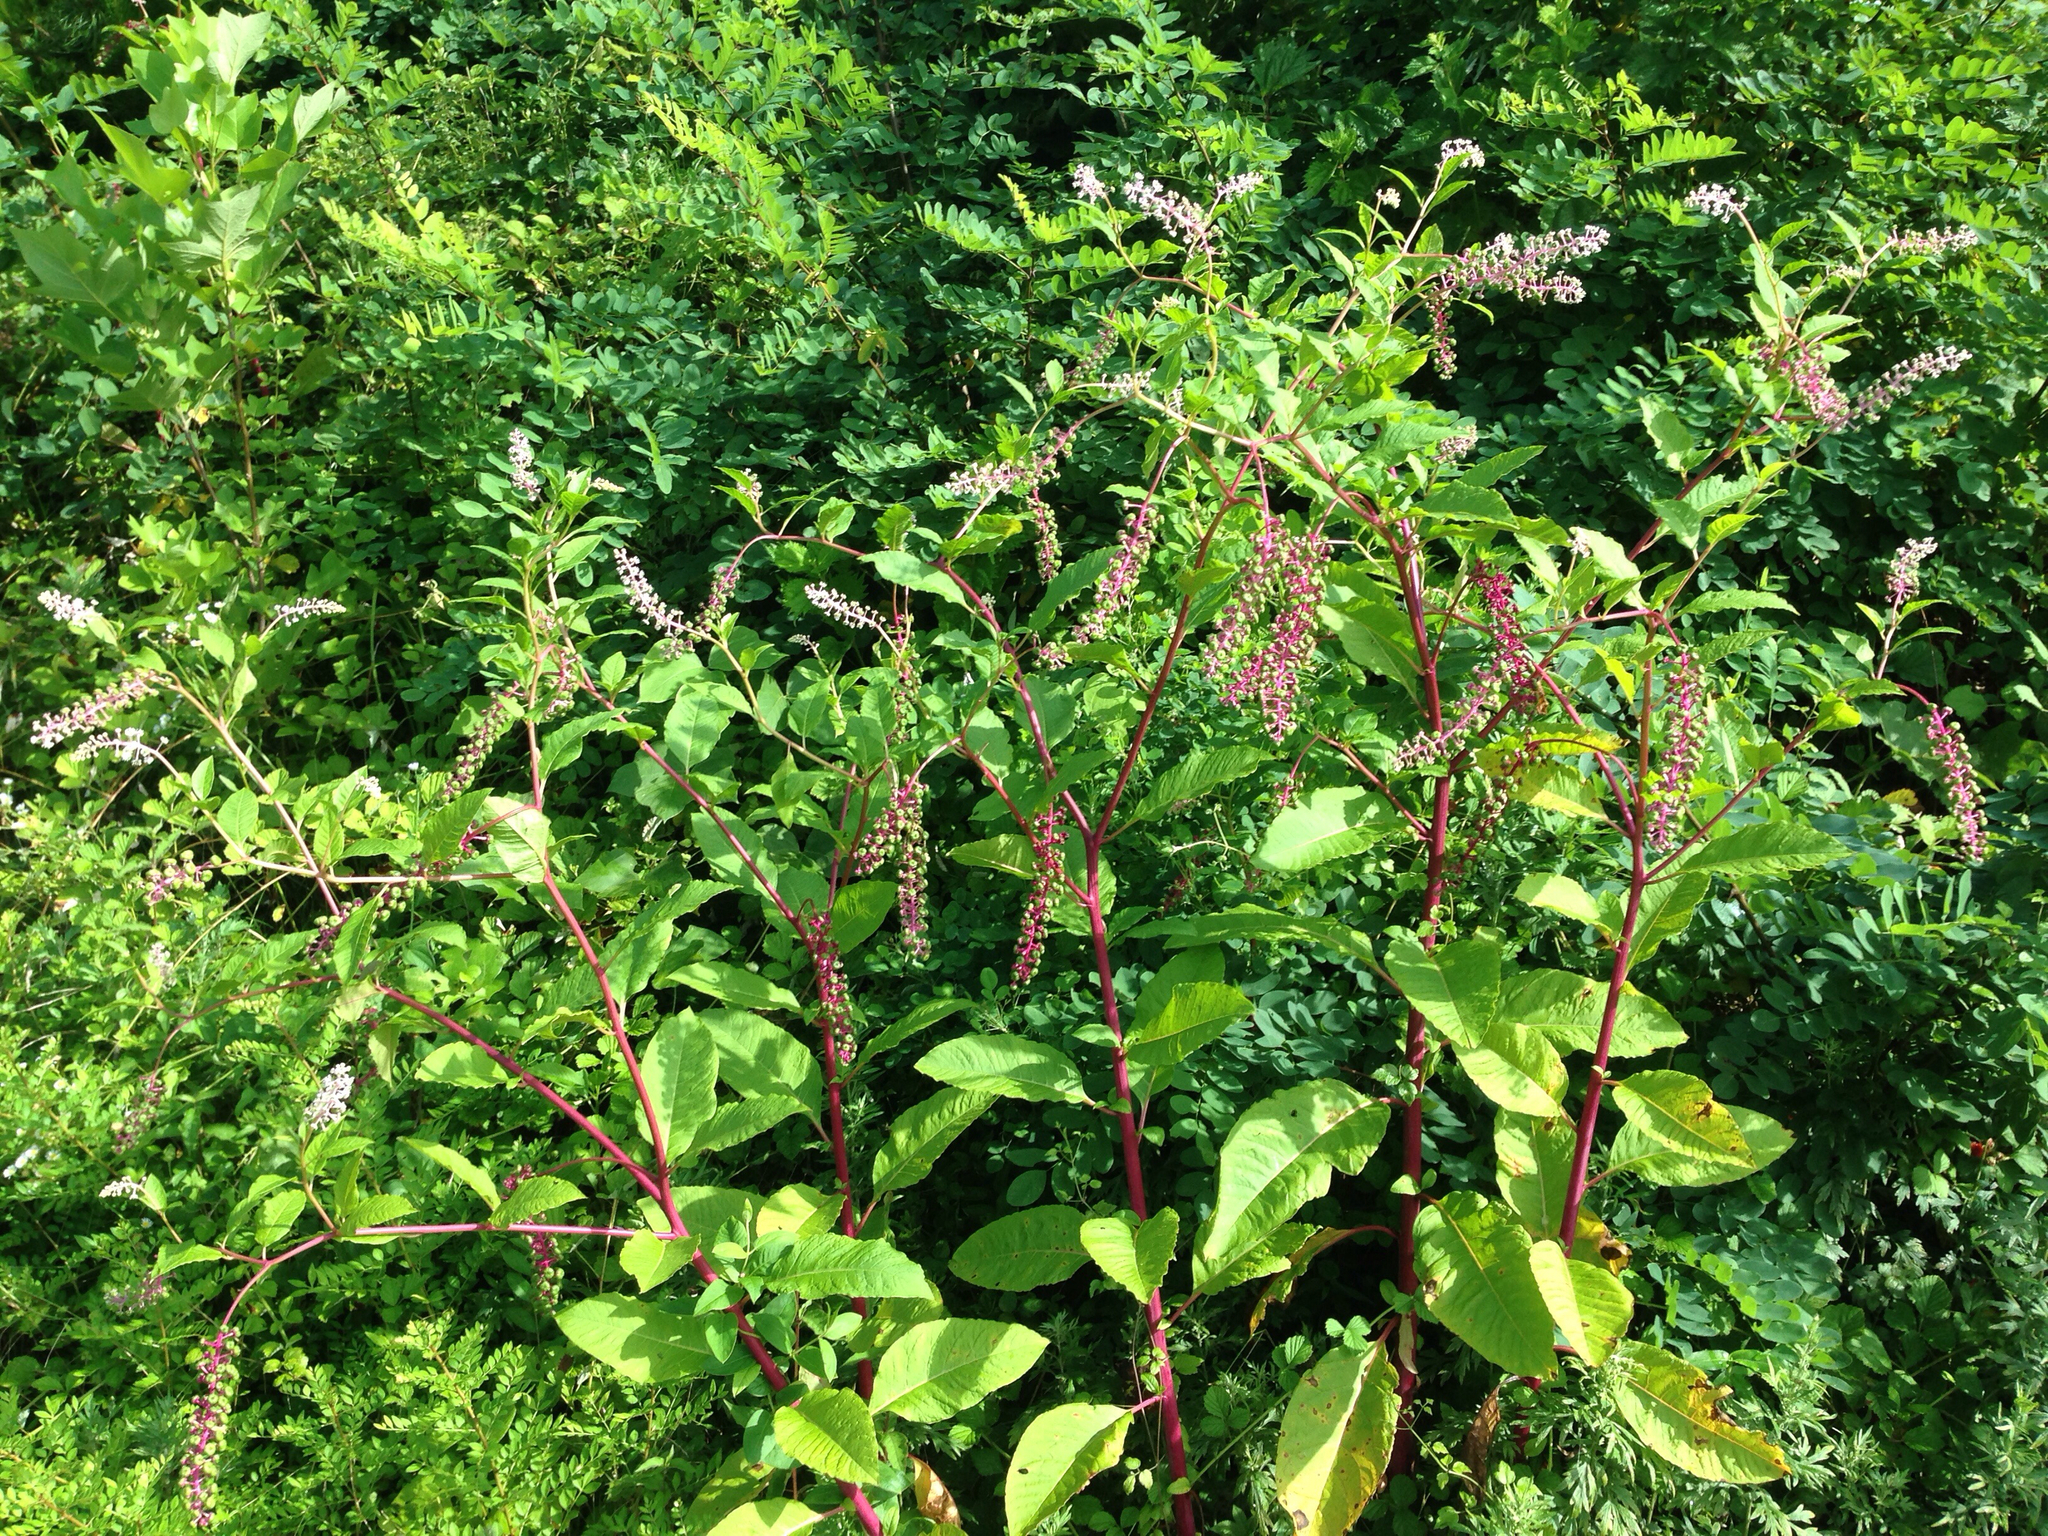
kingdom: Plantae
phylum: Tracheophyta
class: Magnoliopsida
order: Caryophyllales
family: Phytolaccaceae
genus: Phytolacca
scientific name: Phytolacca americana
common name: American pokeweed
